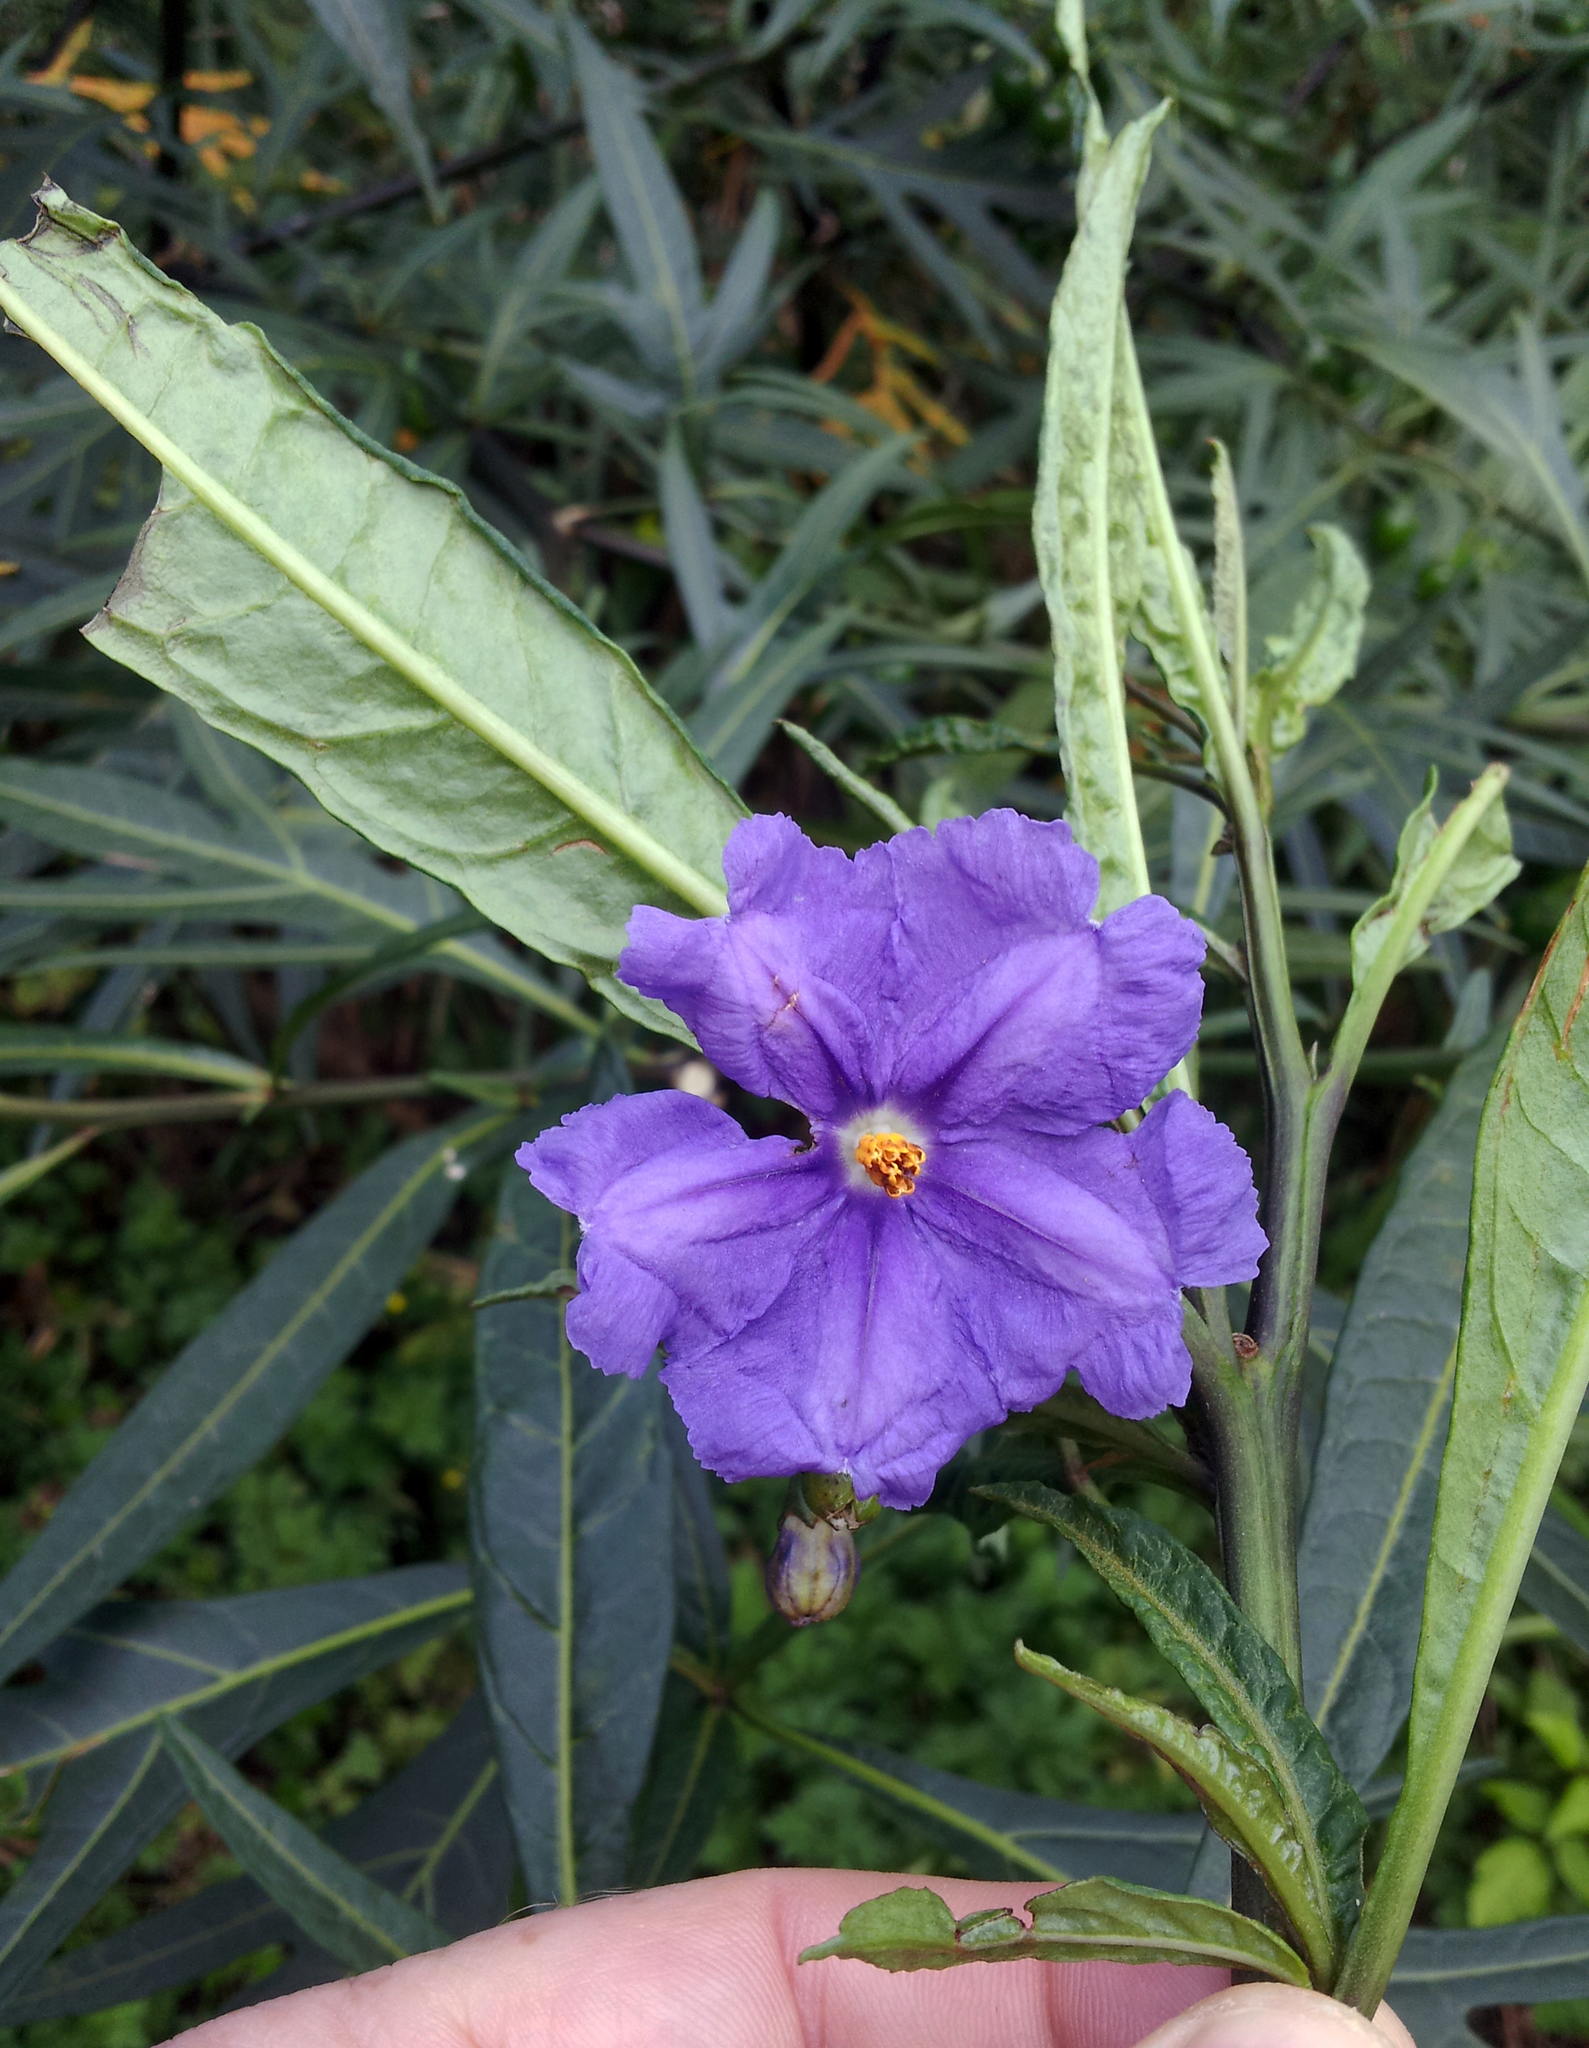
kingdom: Plantae
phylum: Tracheophyta
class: Magnoliopsida
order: Solanales
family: Solanaceae
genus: Solanum
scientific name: Solanum laciniatum
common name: Kangaroo-apple
